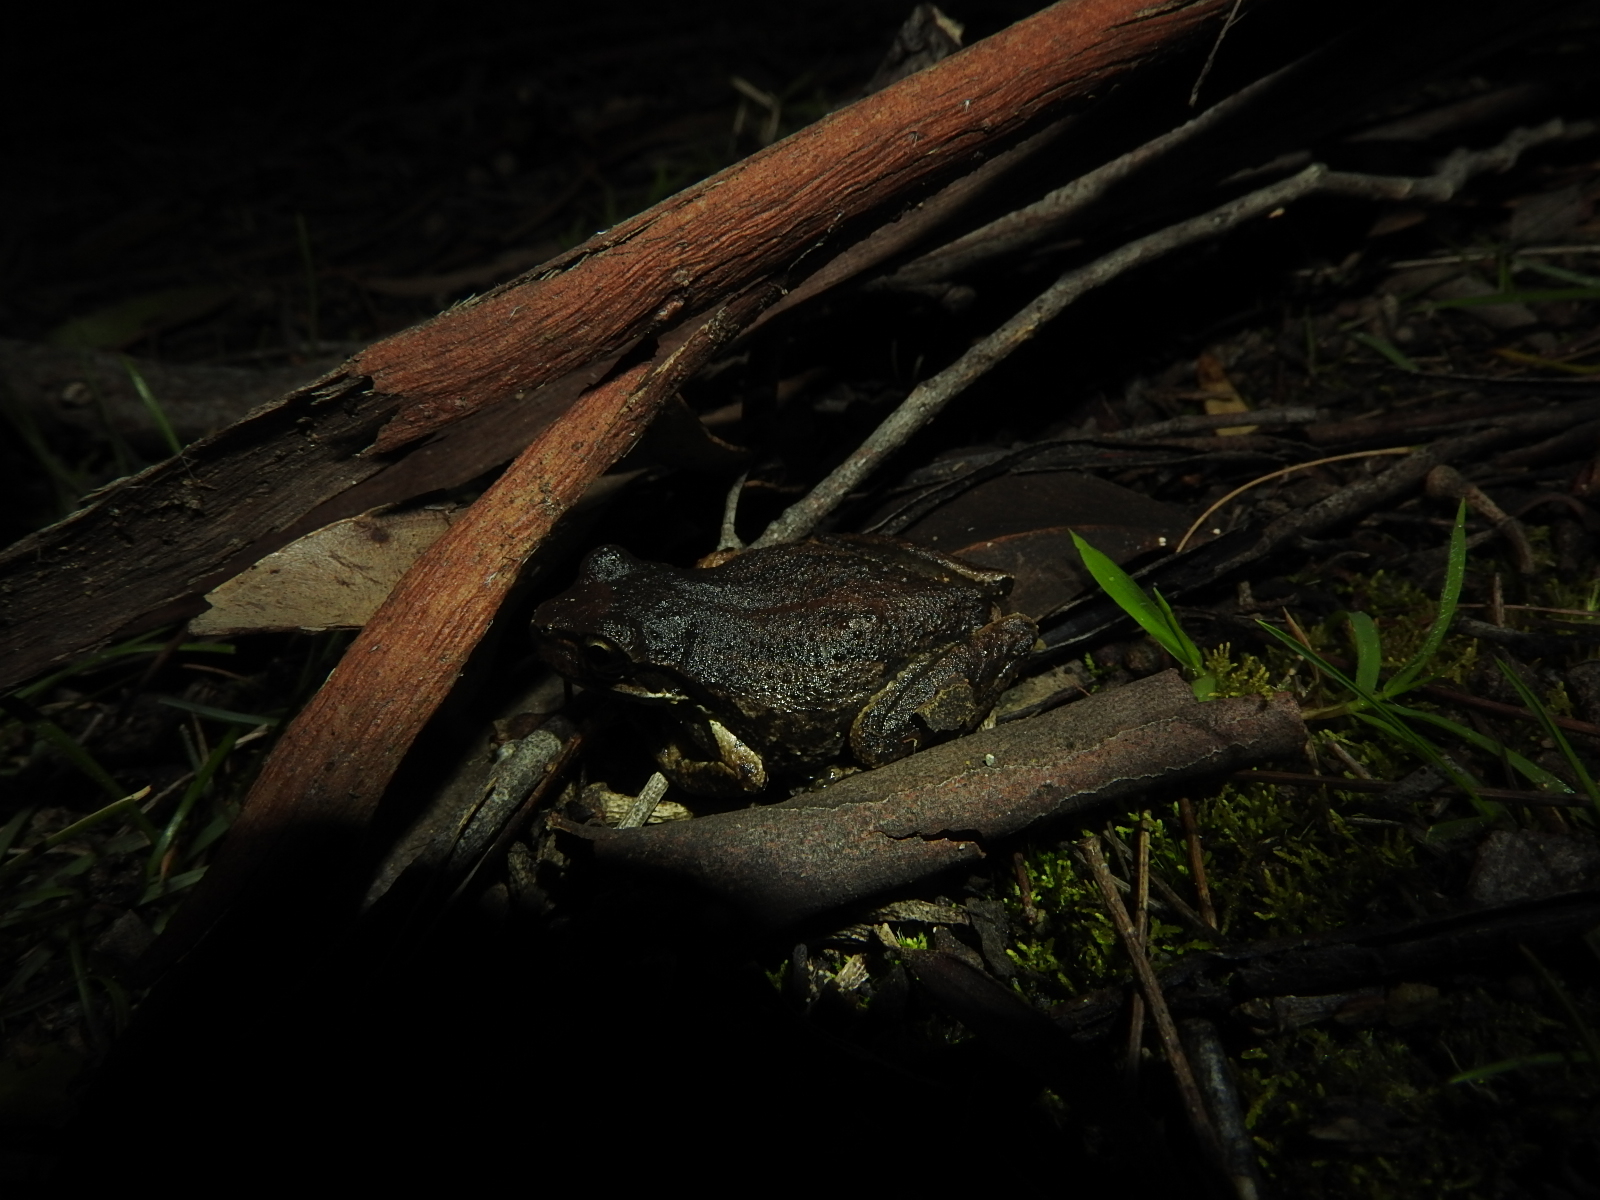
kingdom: Animalia
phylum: Chordata
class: Amphibia
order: Anura
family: Pelodryadidae
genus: Litoria
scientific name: Litoria ewingii
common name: Southern brown tree frog
